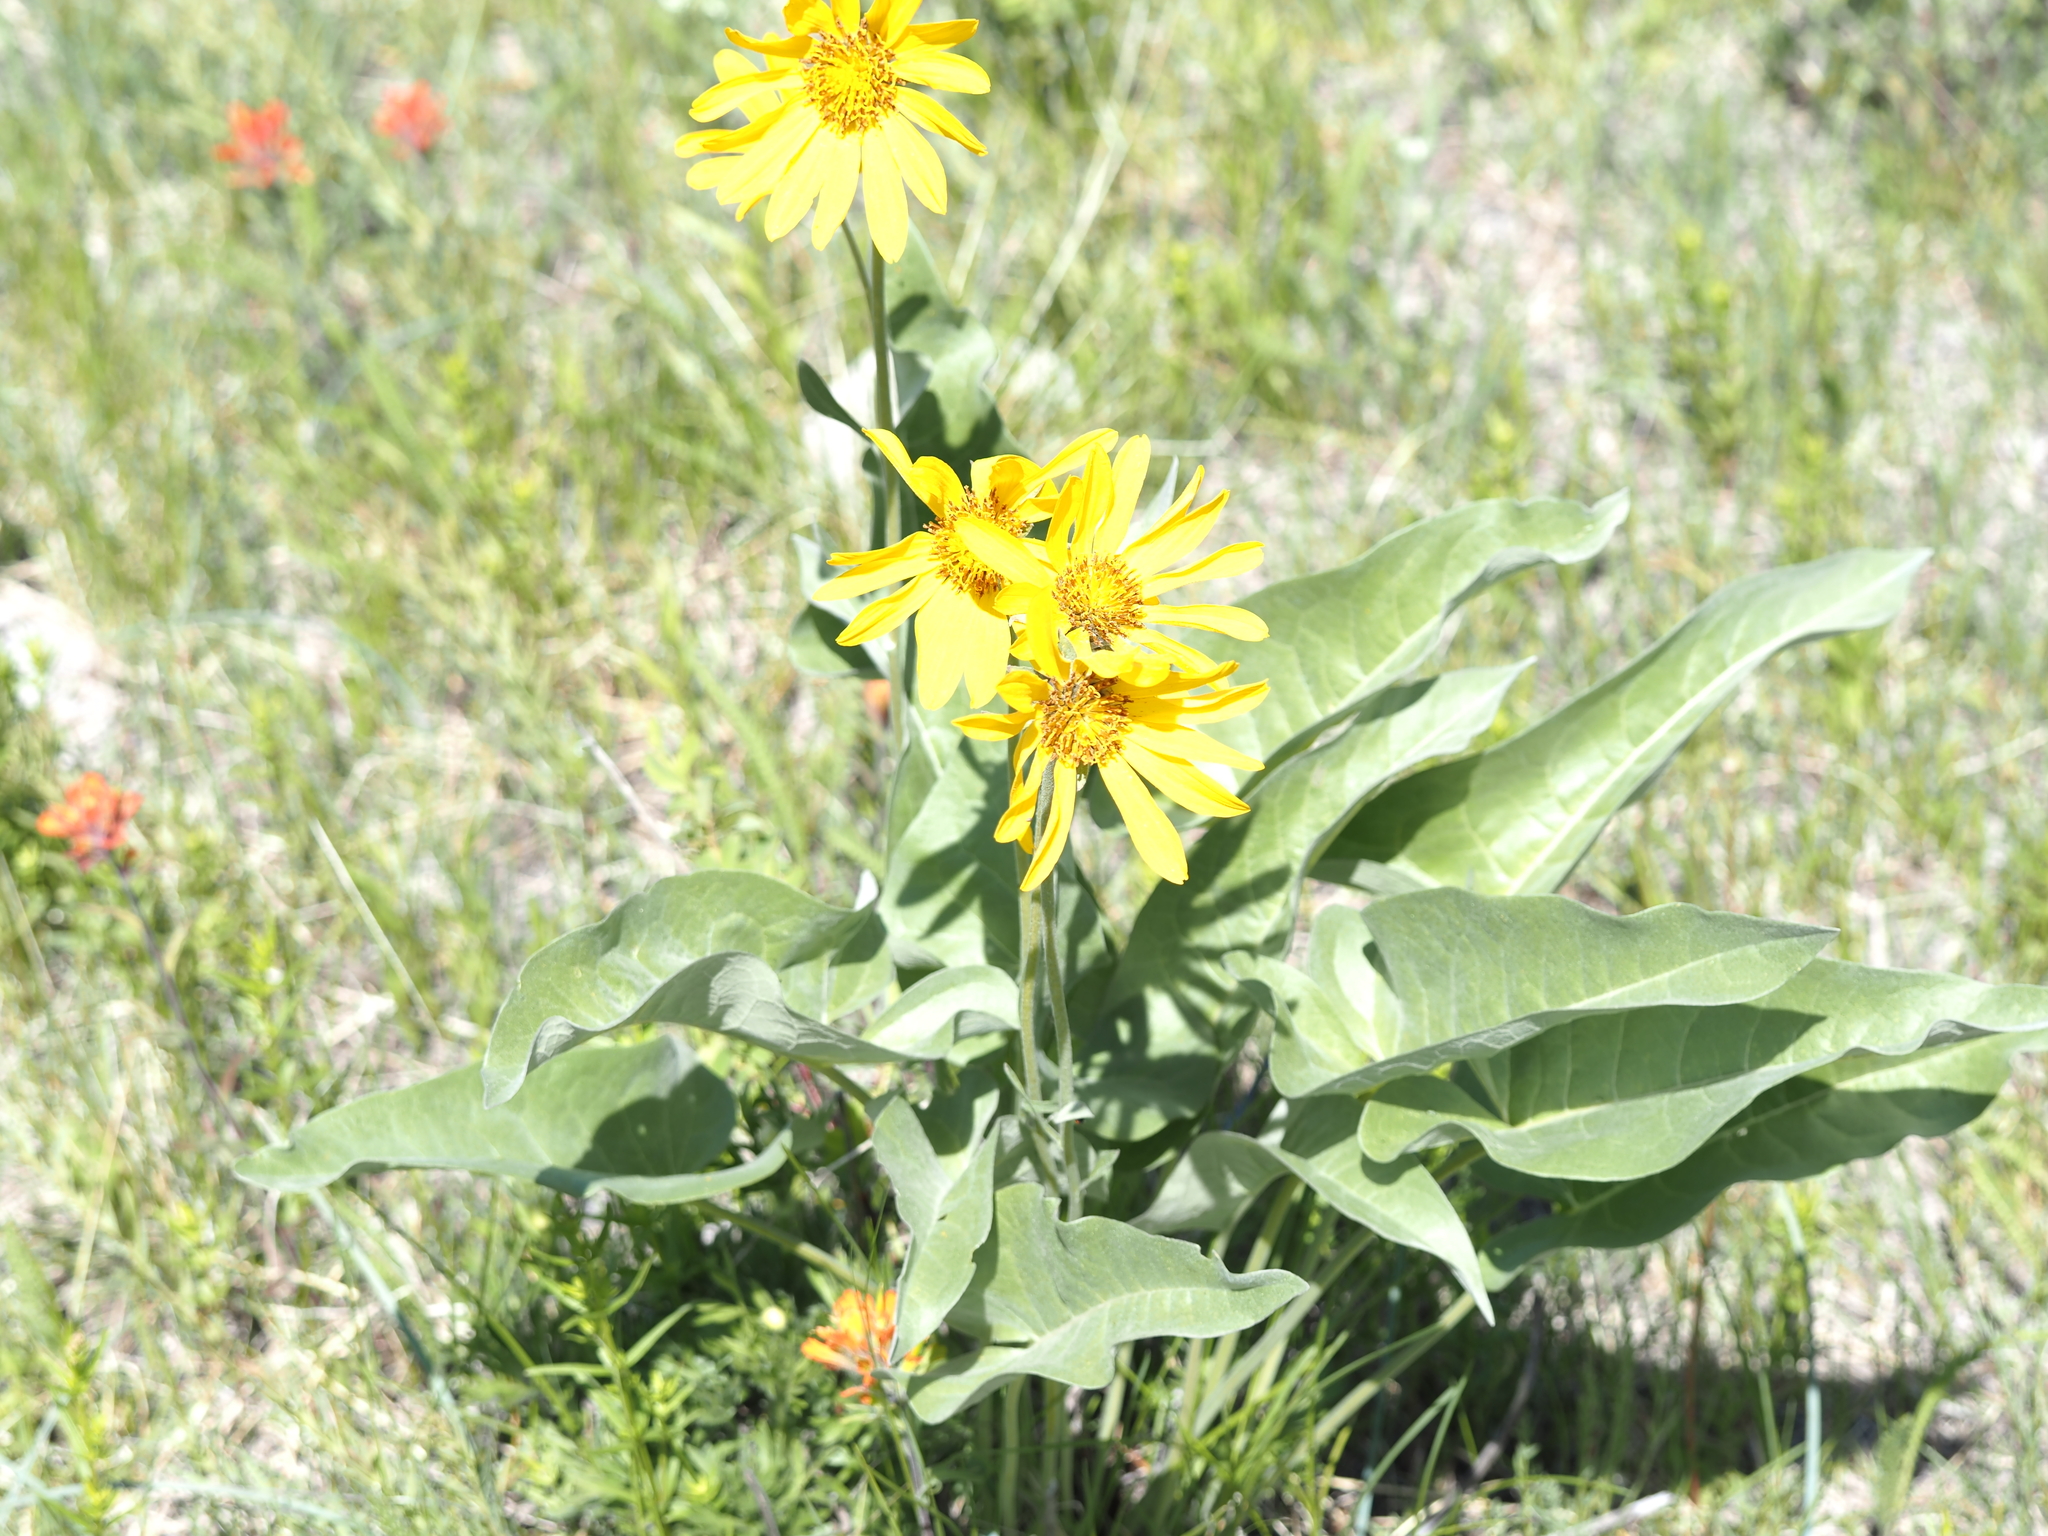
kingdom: Plantae
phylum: Tracheophyta
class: Magnoliopsida
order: Asterales
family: Asteraceae
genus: Wyethia
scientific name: Wyethia sagittata
